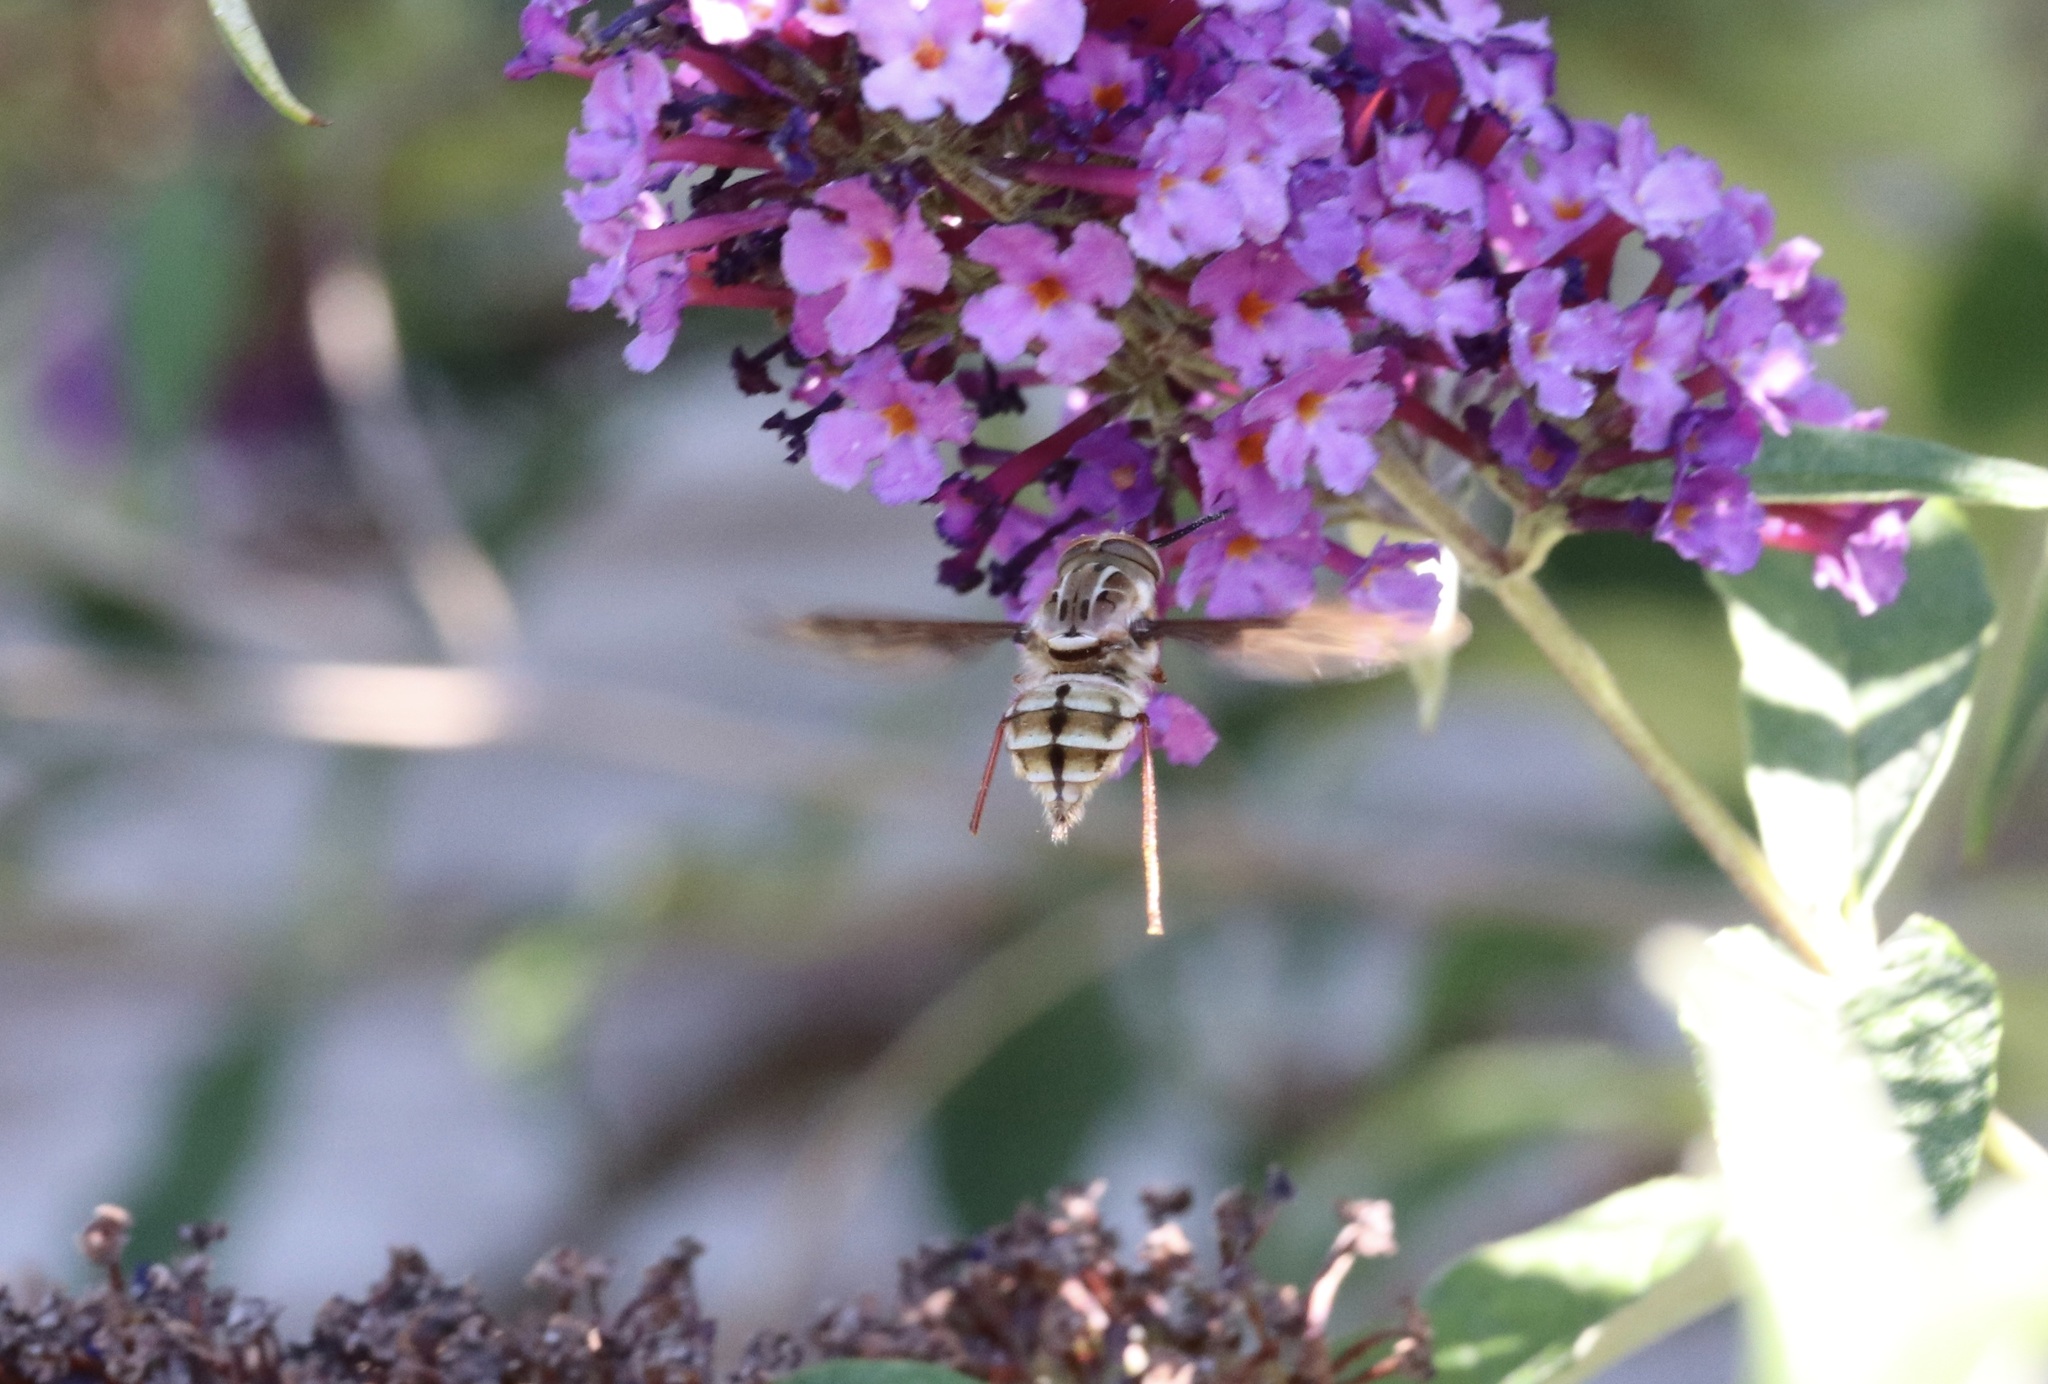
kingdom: Animalia
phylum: Arthropoda
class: Insecta
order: Diptera
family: Nemestrinidae
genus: Trichophthalma
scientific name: Trichophthalma nubipennis
